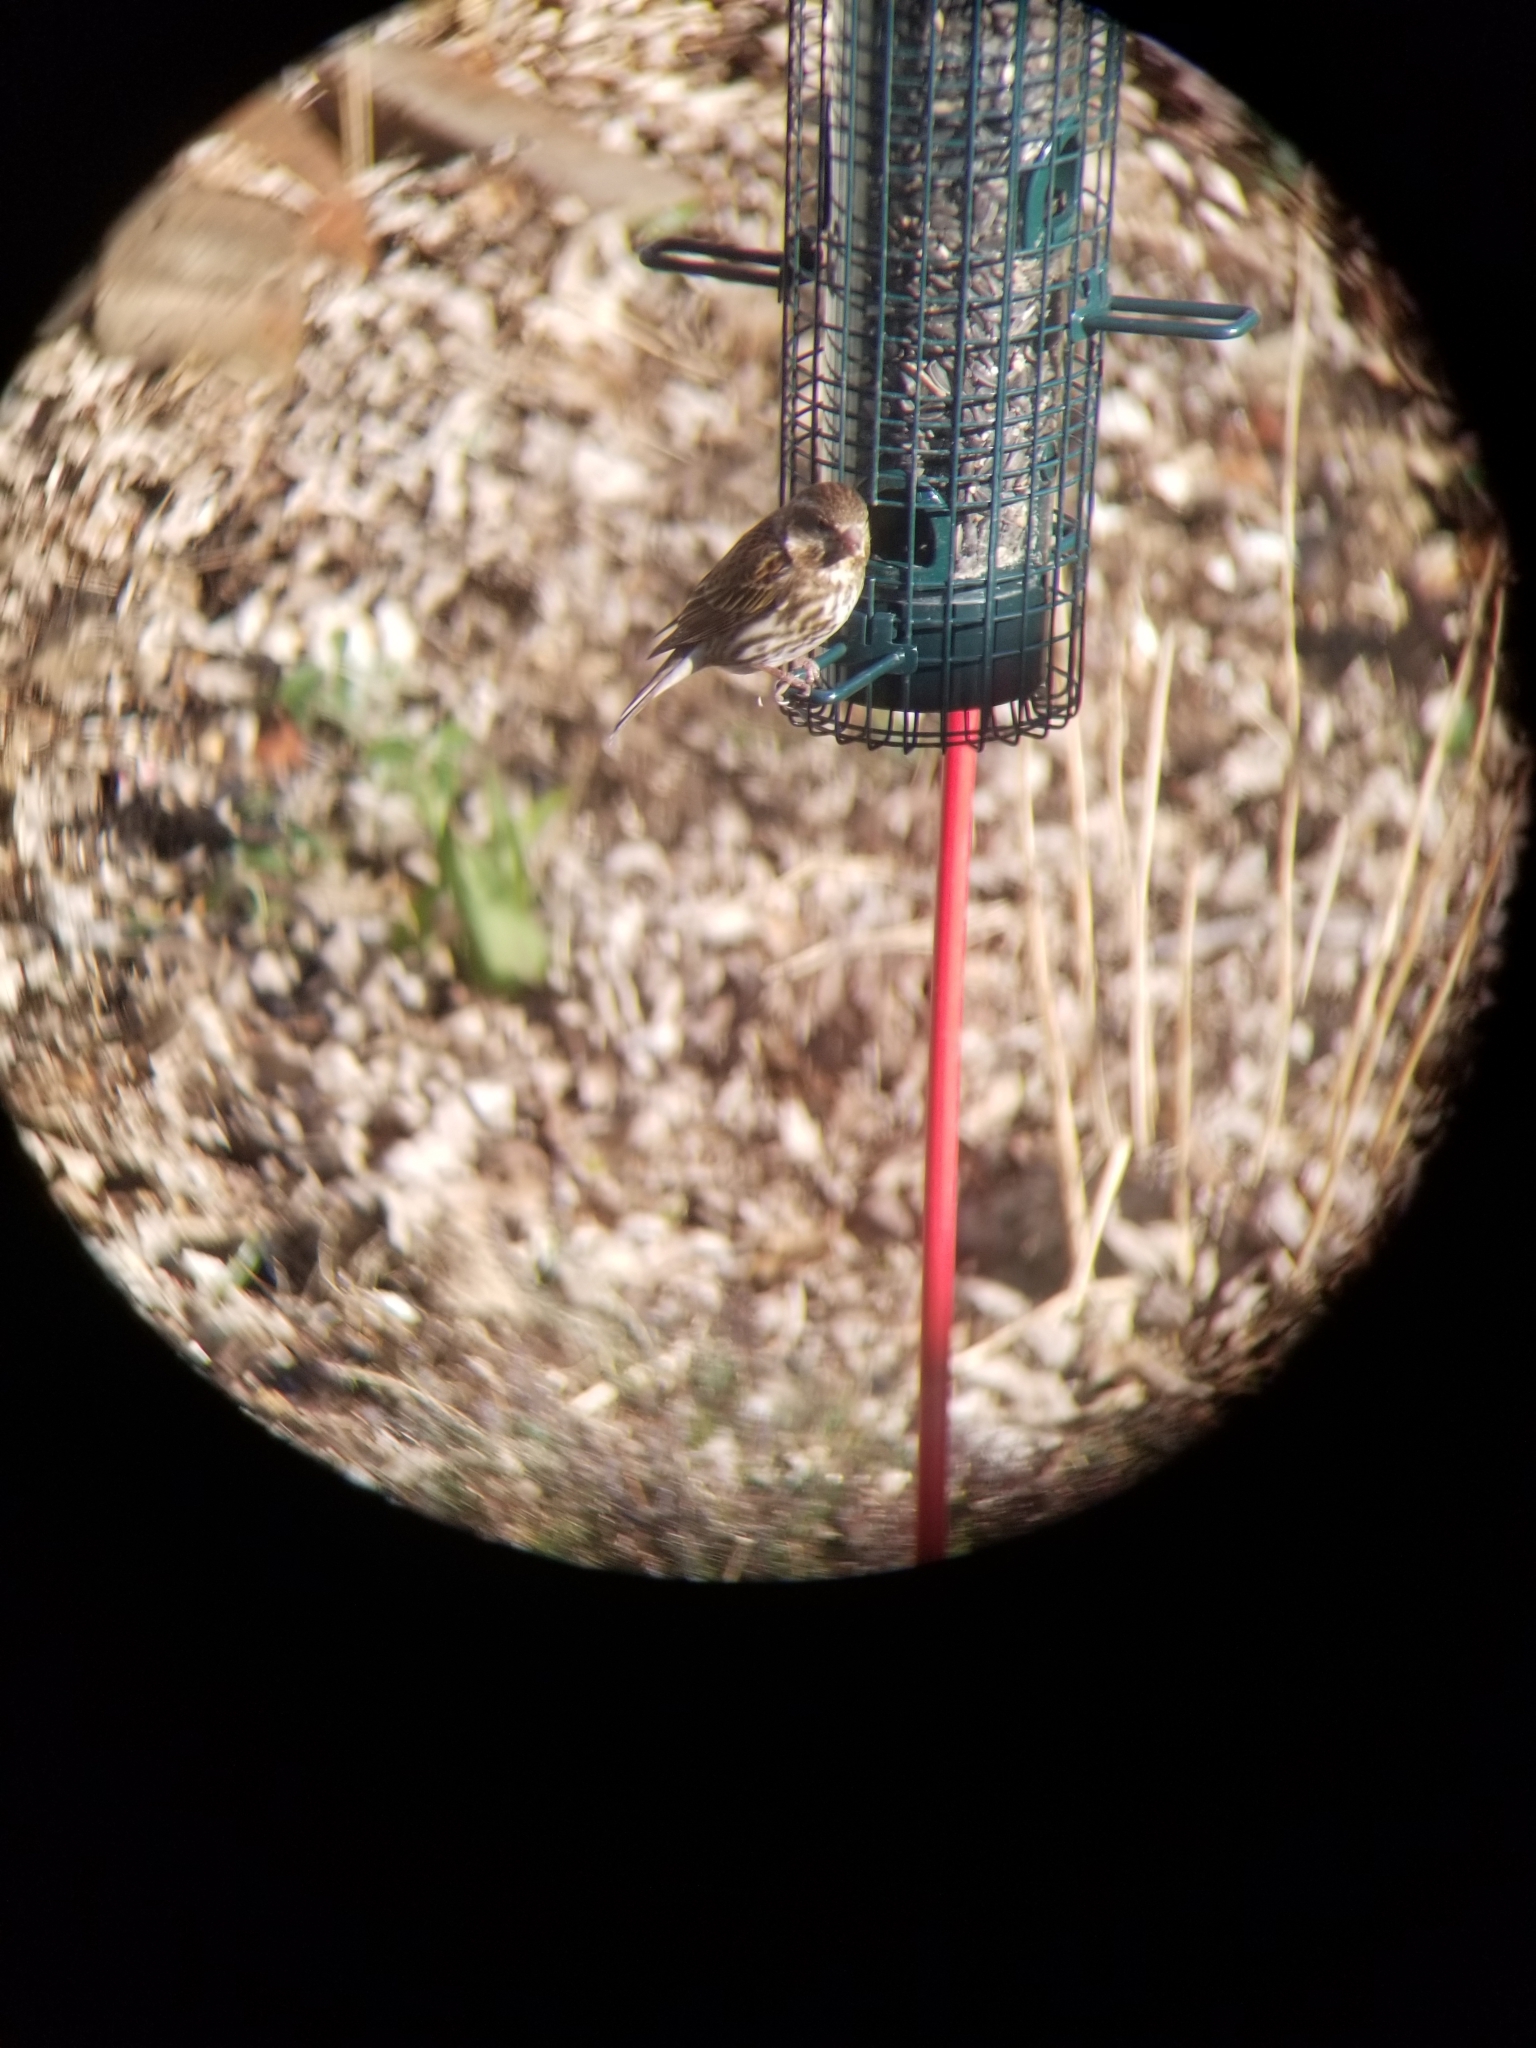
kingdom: Animalia
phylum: Chordata
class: Aves
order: Passeriformes
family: Fringillidae
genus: Haemorhous
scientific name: Haemorhous purpureus
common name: Purple finch
